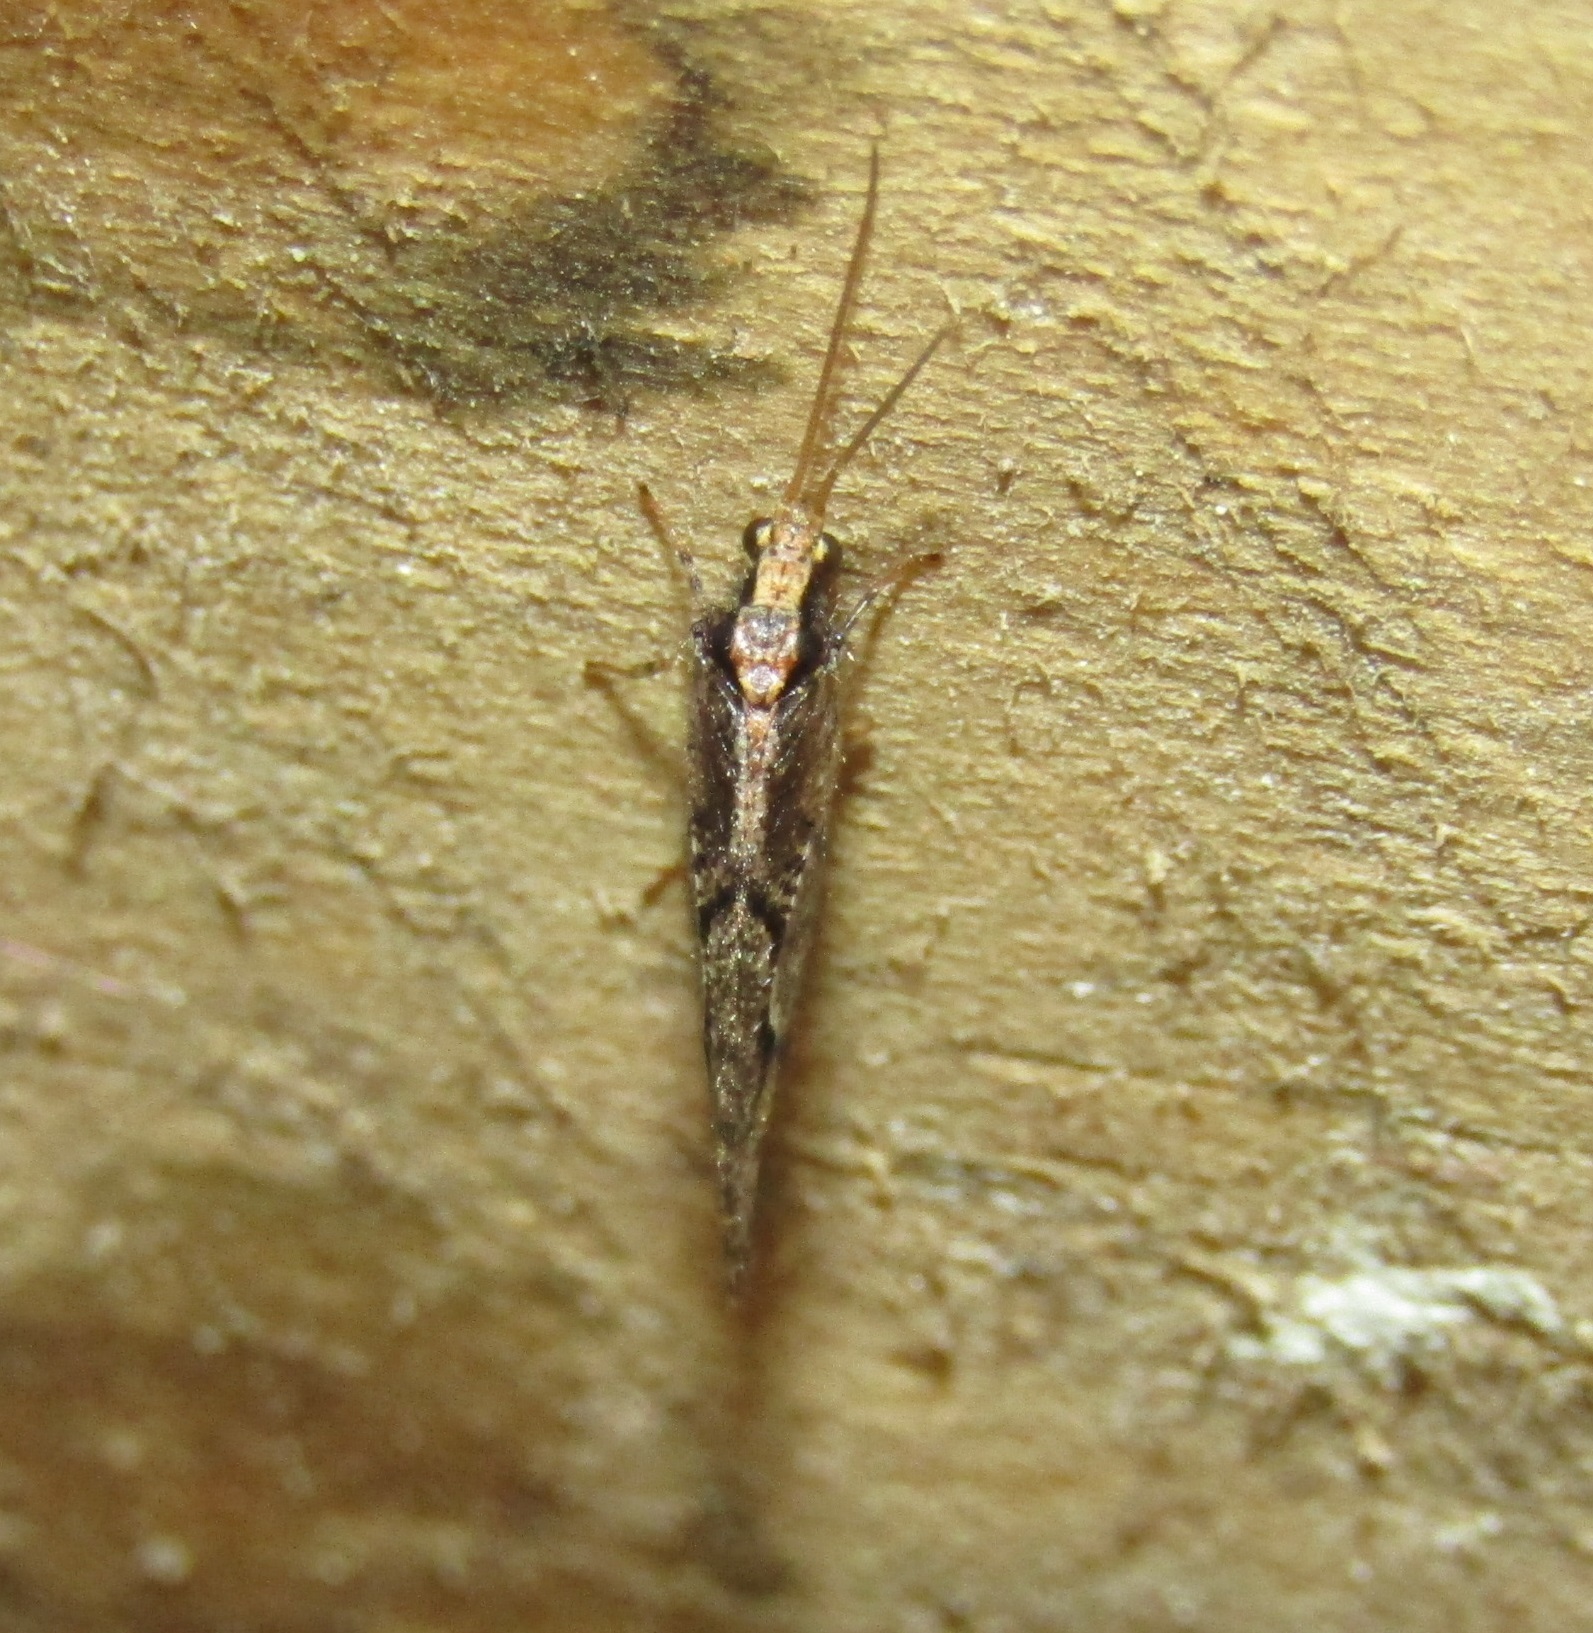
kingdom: Animalia
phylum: Arthropoda
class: Insecta
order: Neuroptera
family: Hemerobiidae
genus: Wesmaelius
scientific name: Wesmaelius subnebulosus
